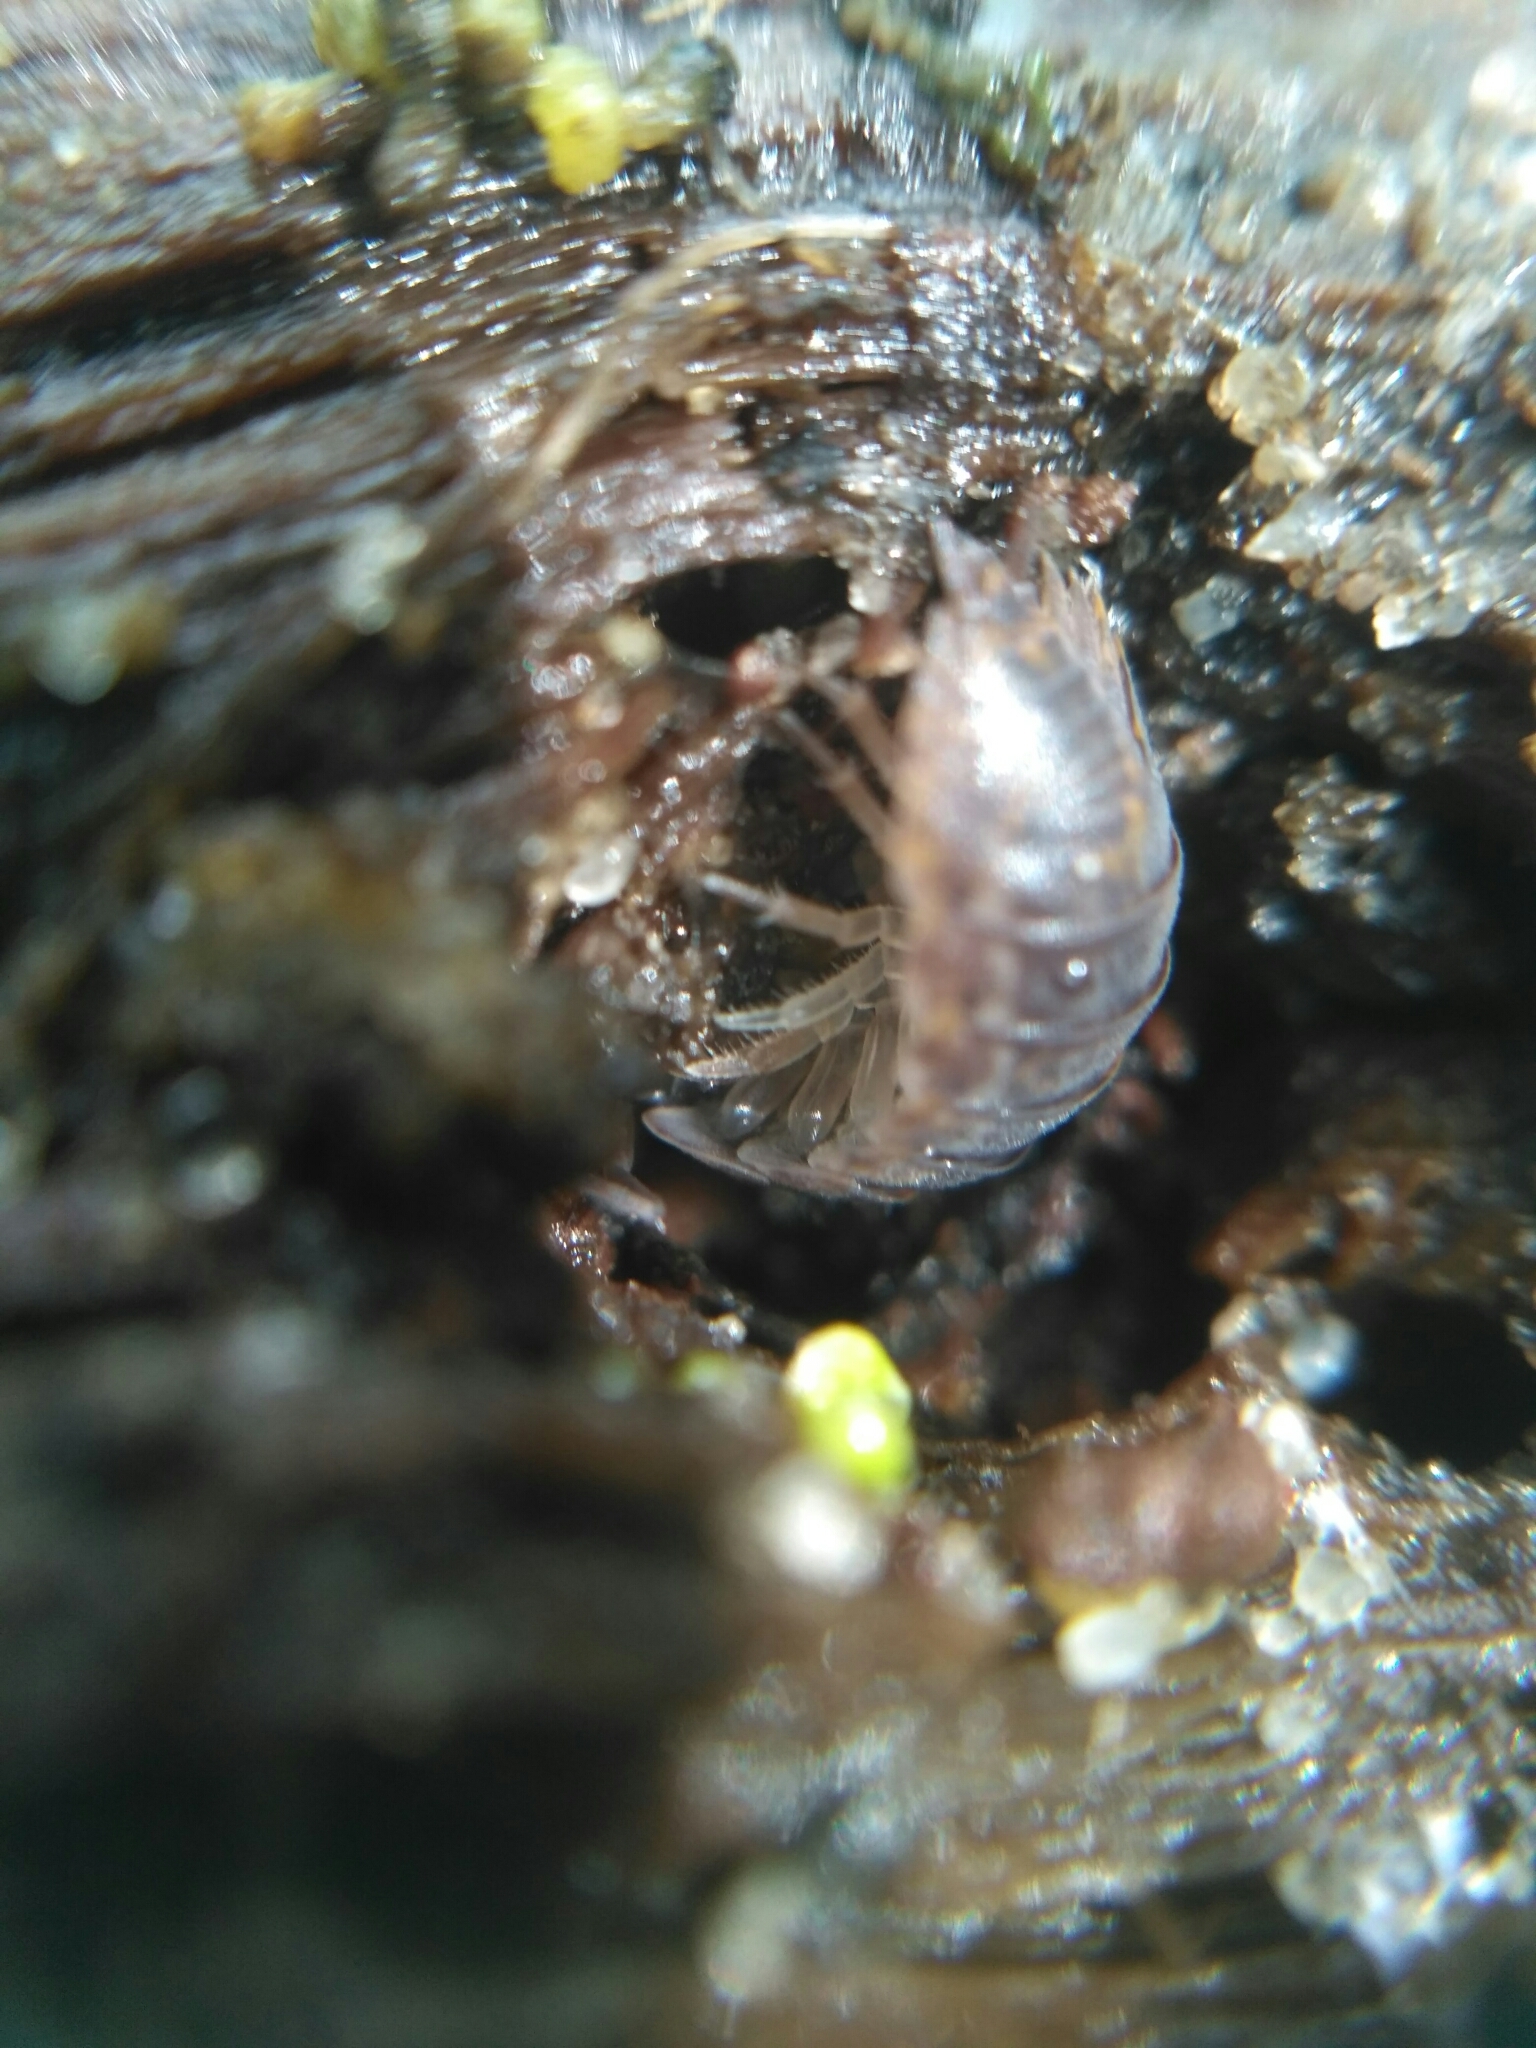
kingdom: Animalia
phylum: Arthropoda
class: Malacostraca
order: Isopoda
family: Trachelipodidae
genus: Trachelipus
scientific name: Trachelipus rathkii
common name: Isopod
